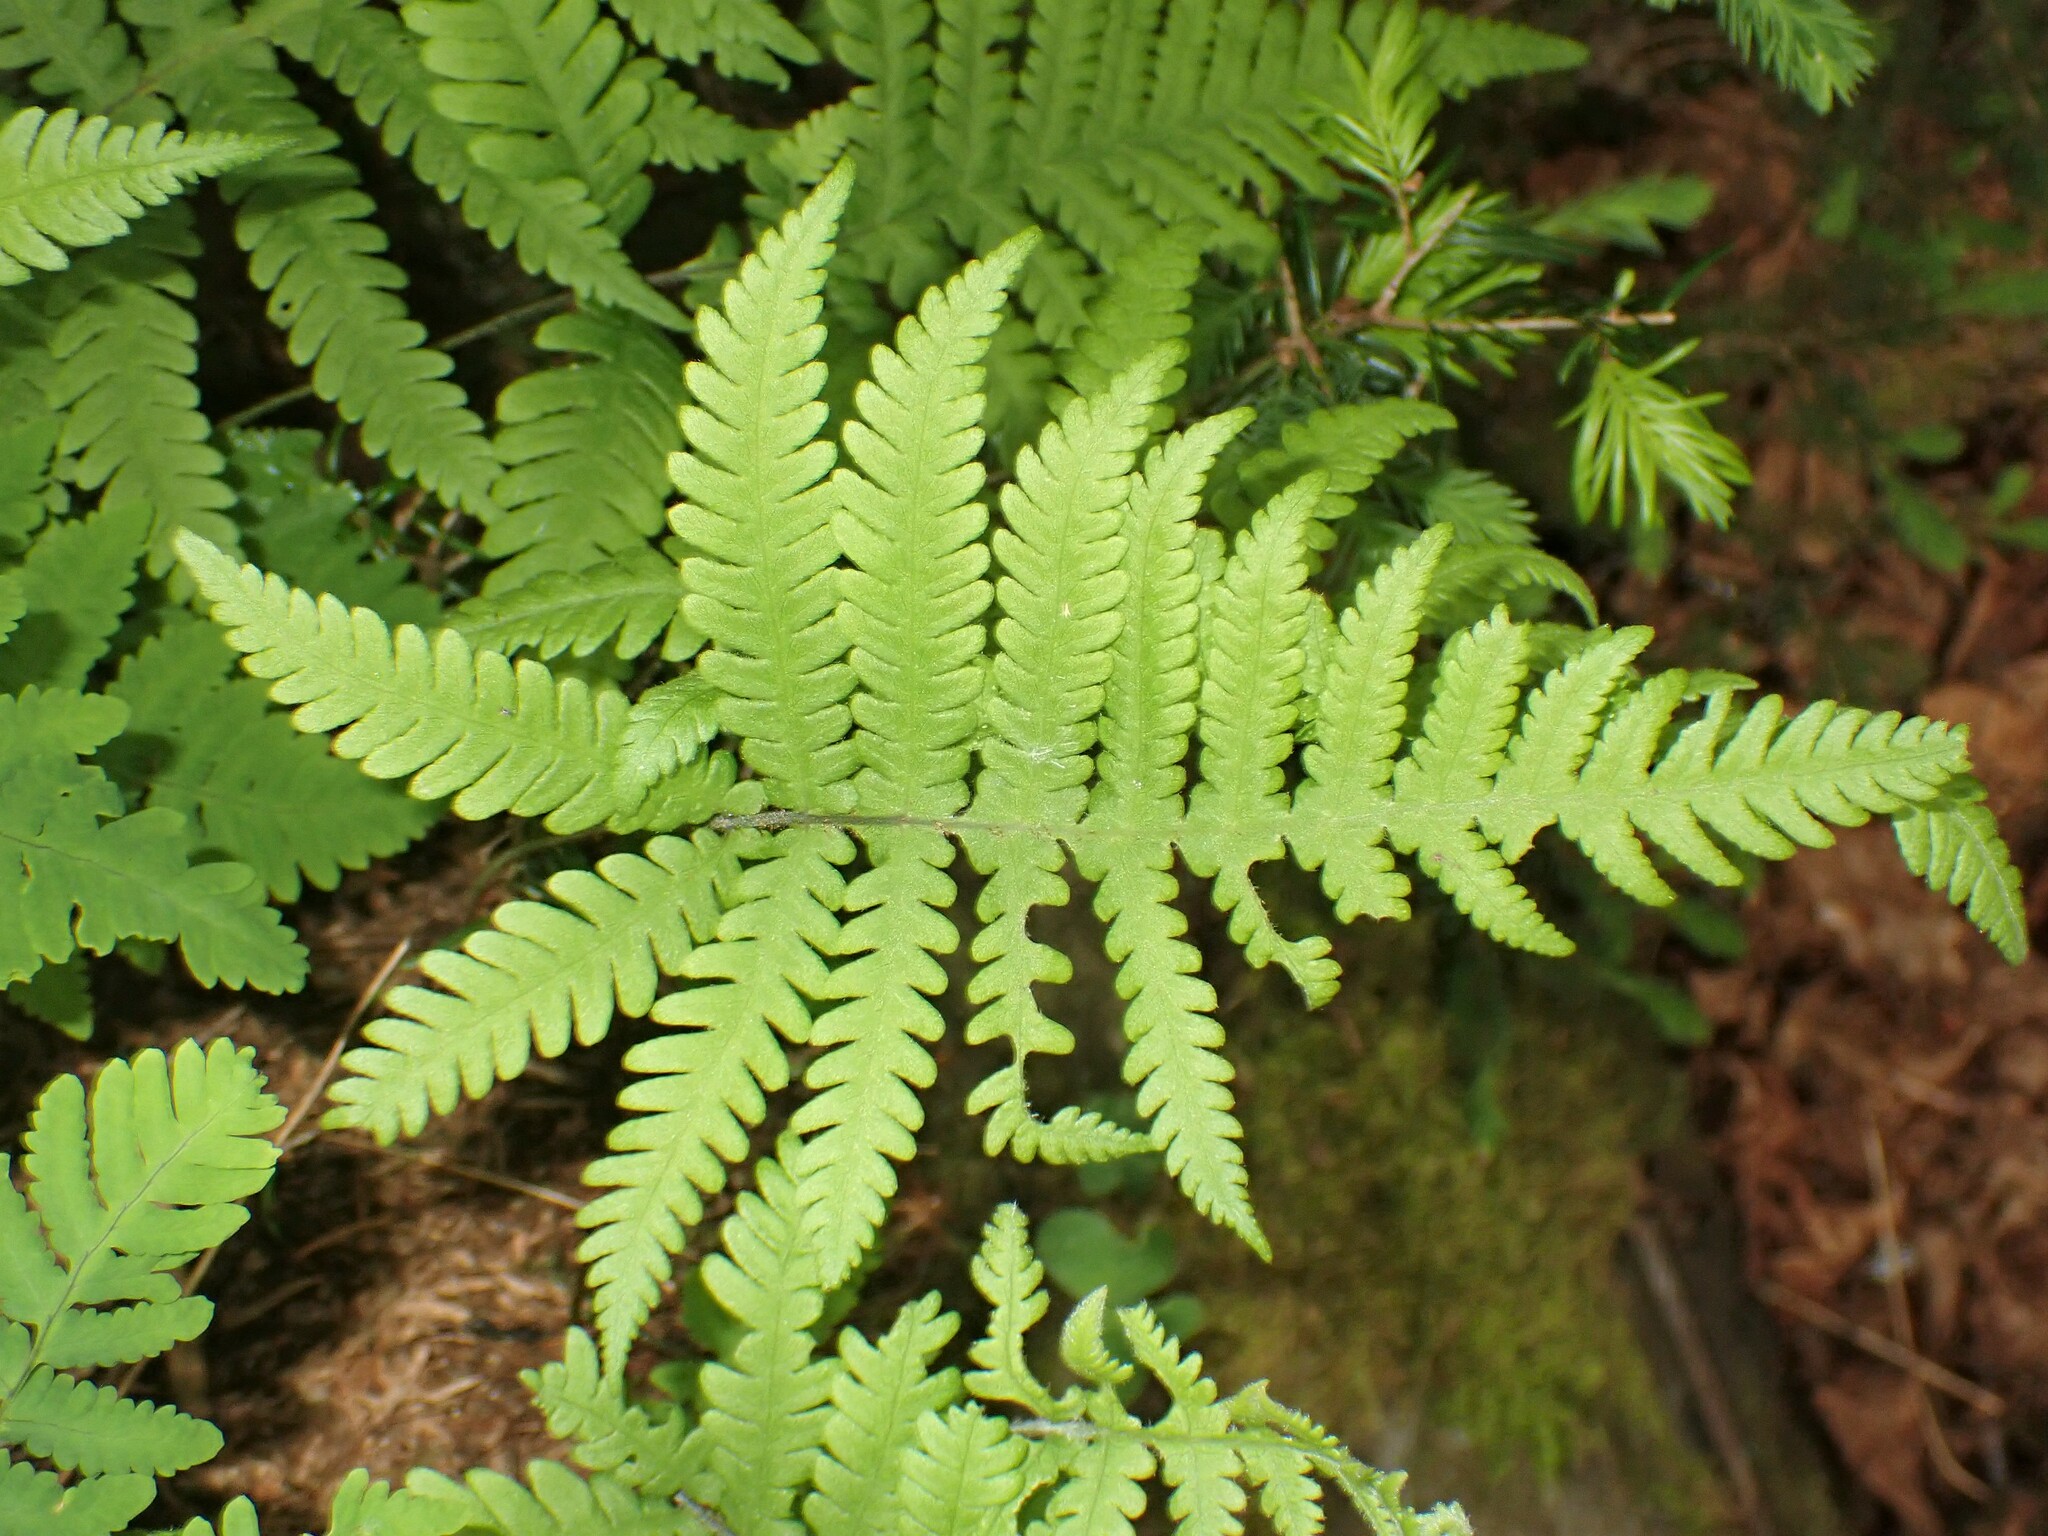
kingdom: Plantae
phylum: Tracheophyta
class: Polypodiopsida
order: Polypodiales
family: Thelypteridaceae
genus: Phegopteris
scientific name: Phegopteris connectilis
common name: Beech fern
